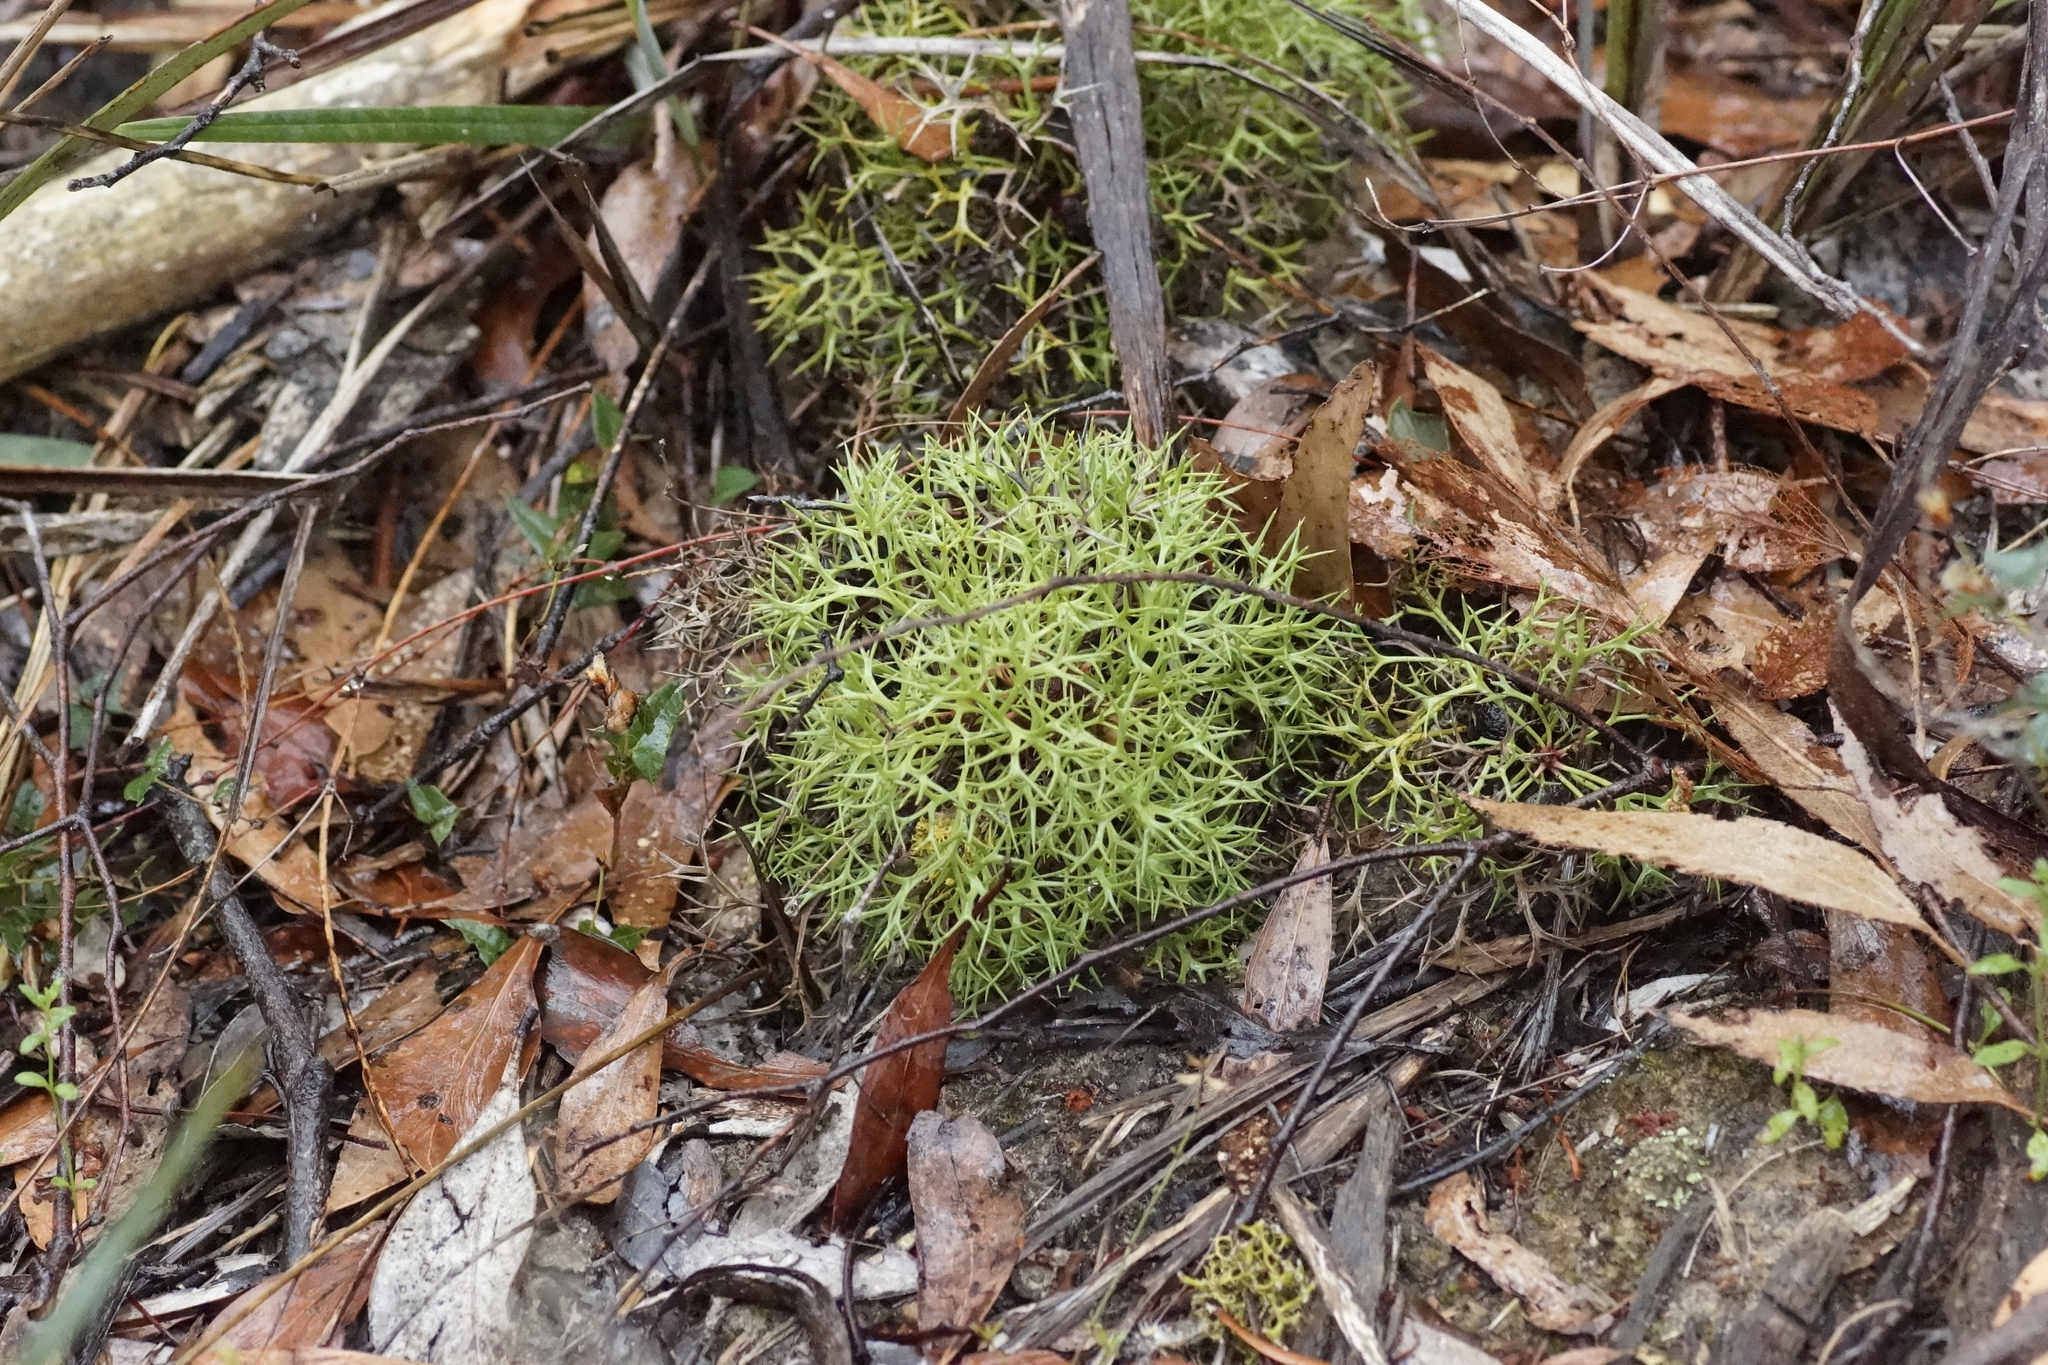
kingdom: Plantae
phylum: Tracheophyta
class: Magnoliopsida
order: Proteales
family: Proteaceae
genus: Isopogon
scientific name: Isopogon ceratophyllus
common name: Horny cone-bush
